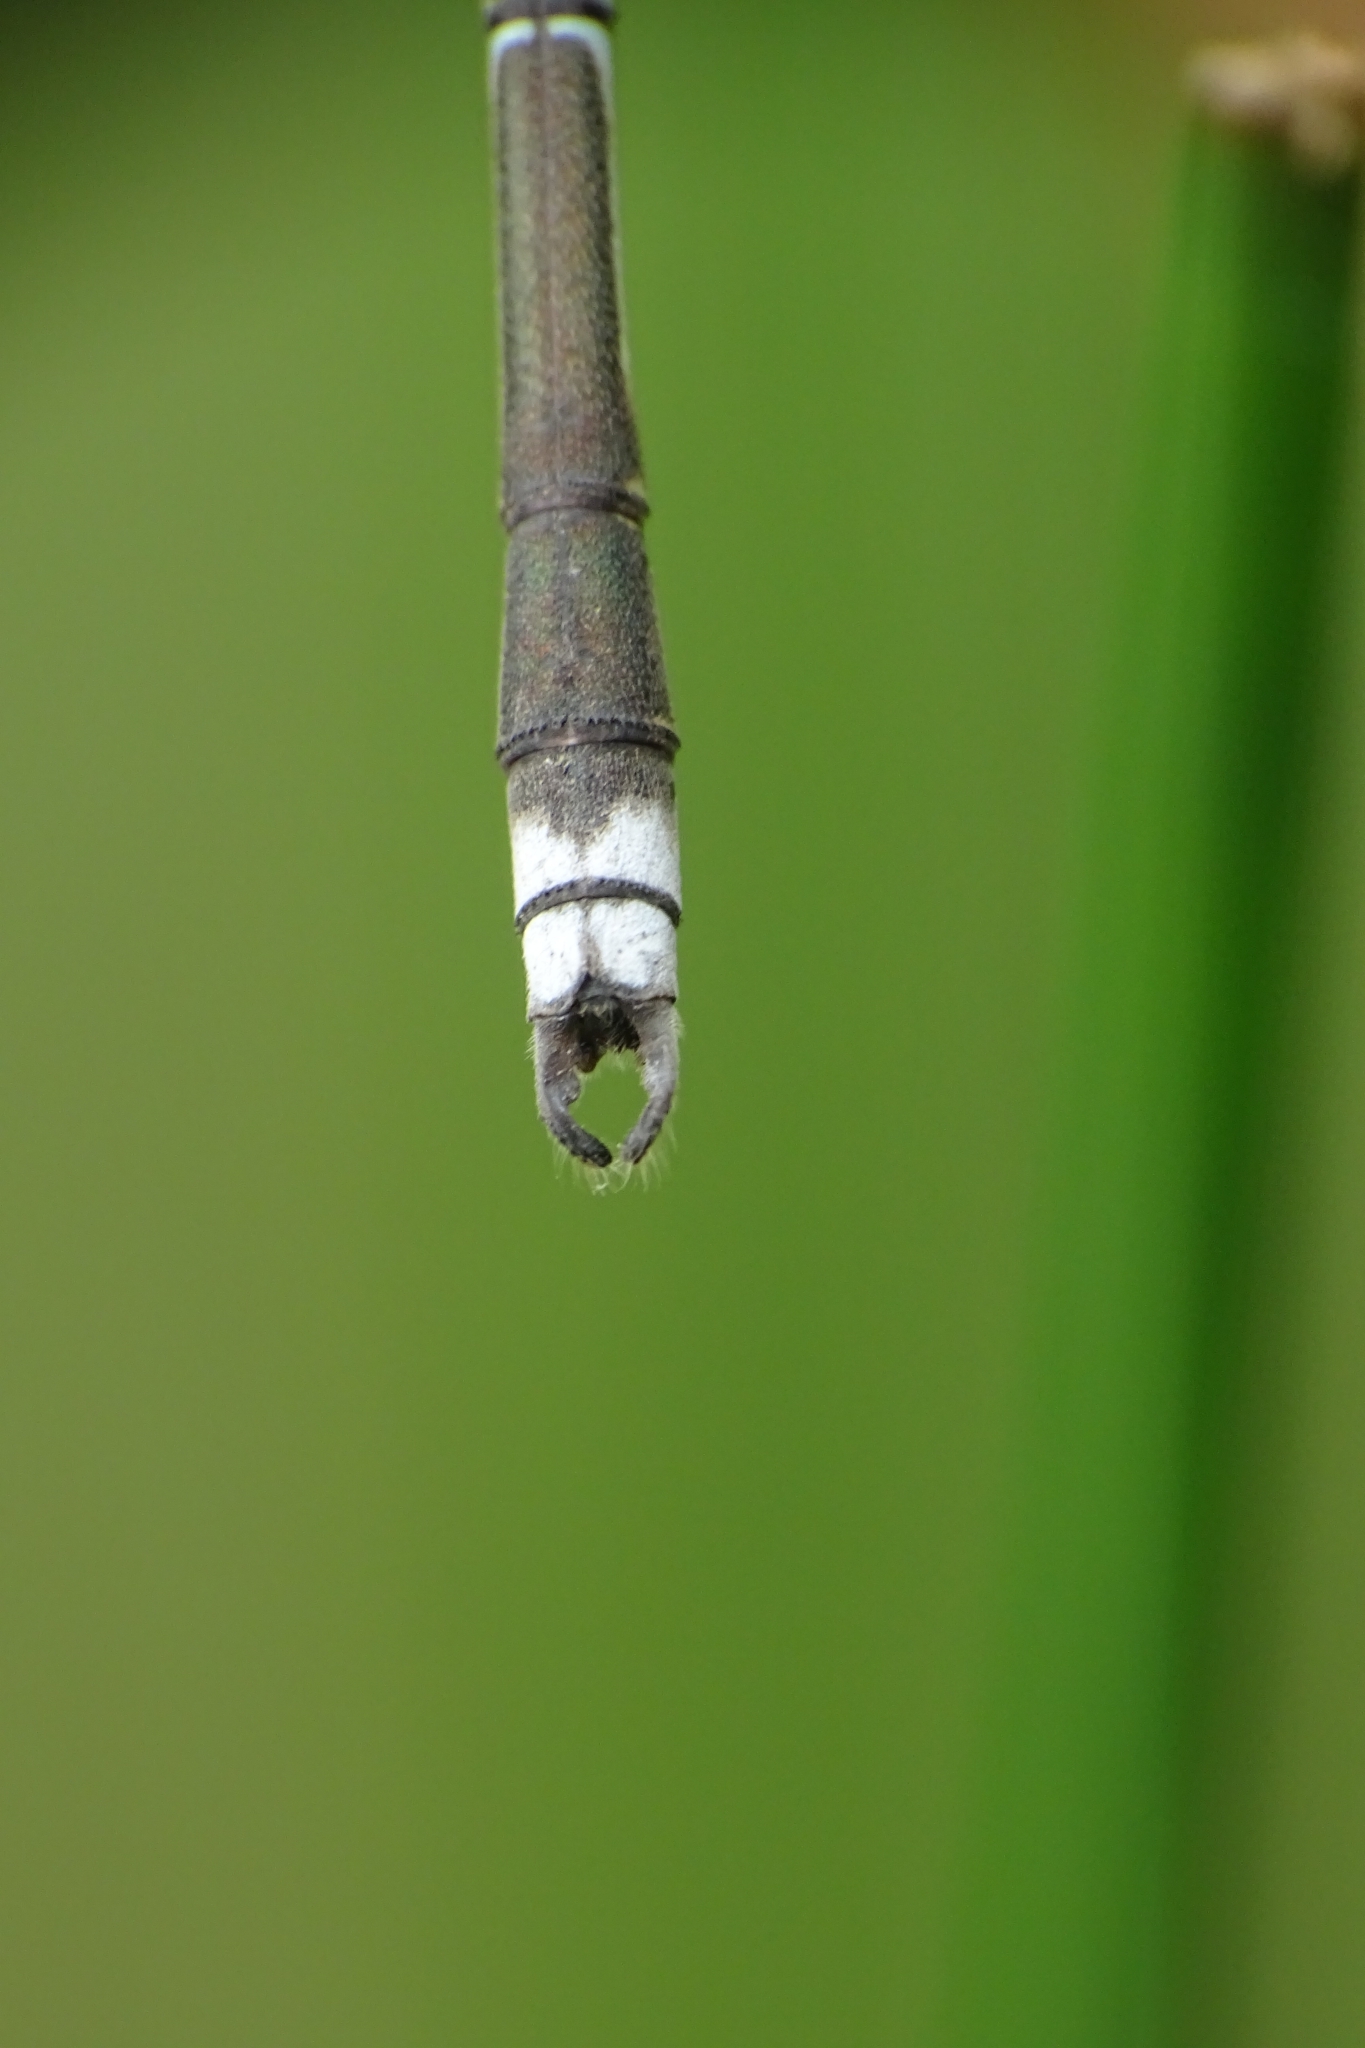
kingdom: Animalia
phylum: Arthropoda
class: Insecta
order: Odonata
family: Lestidae
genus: Lestes
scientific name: Lestes elatus
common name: Emerald spreadwing
